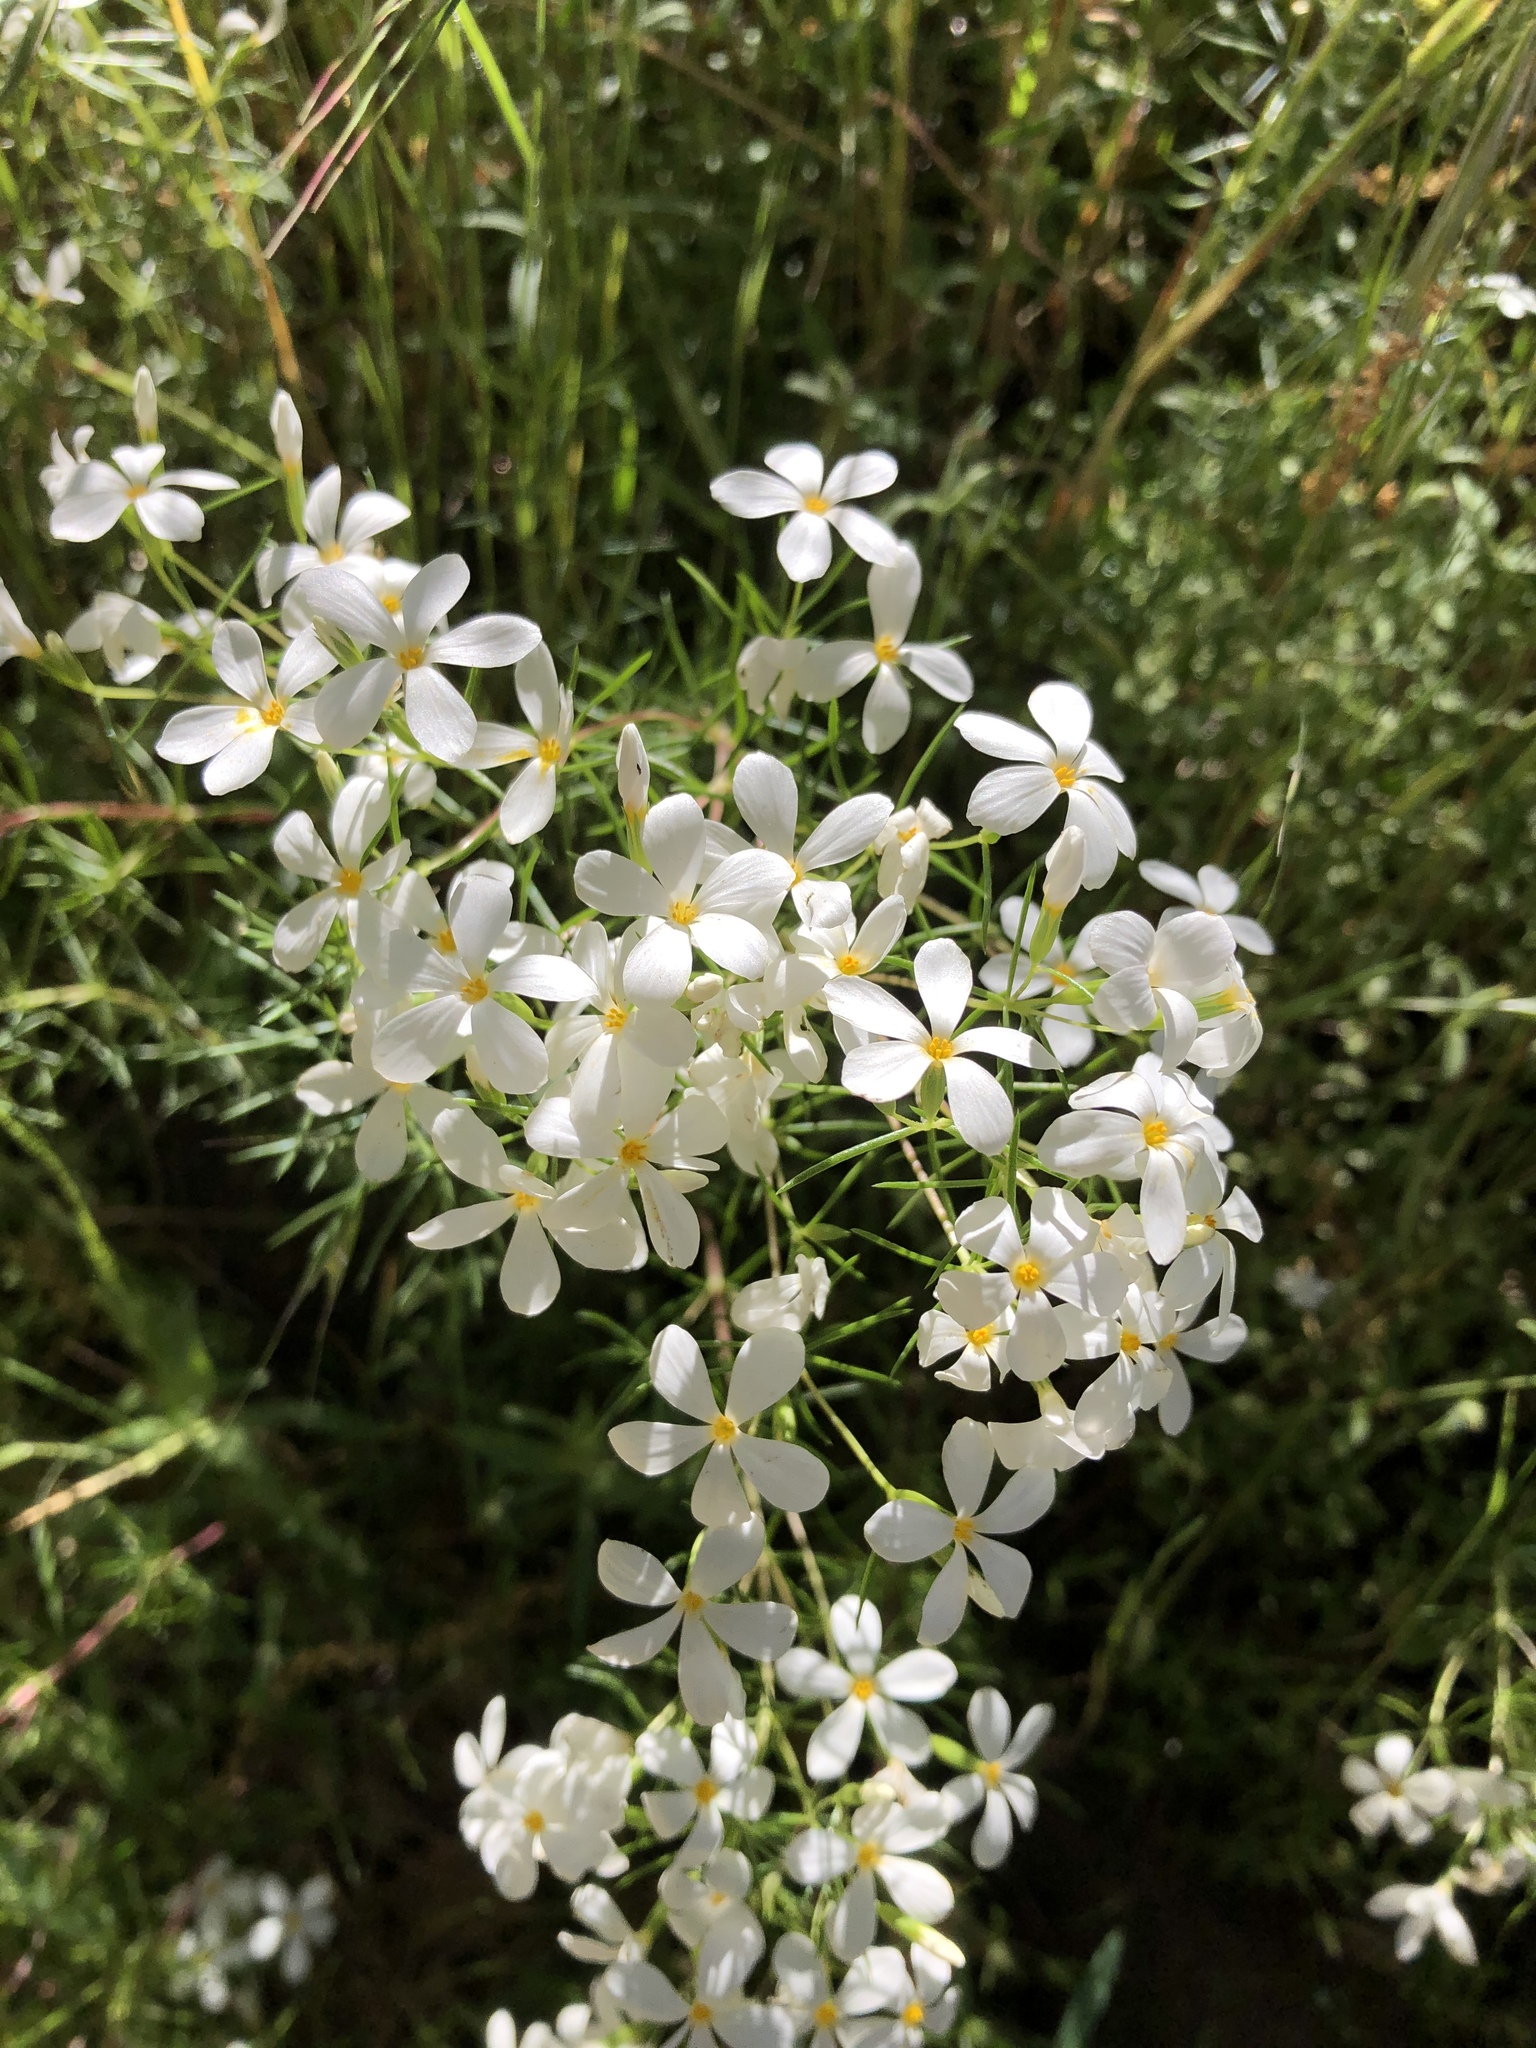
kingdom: Plantae
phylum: Tracheophyta
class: Magnoliopsida
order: Ericales
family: Polemoniaceae
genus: Leptosiphon
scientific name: Leptosiphon floribundum
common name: Many-flower linanthus
